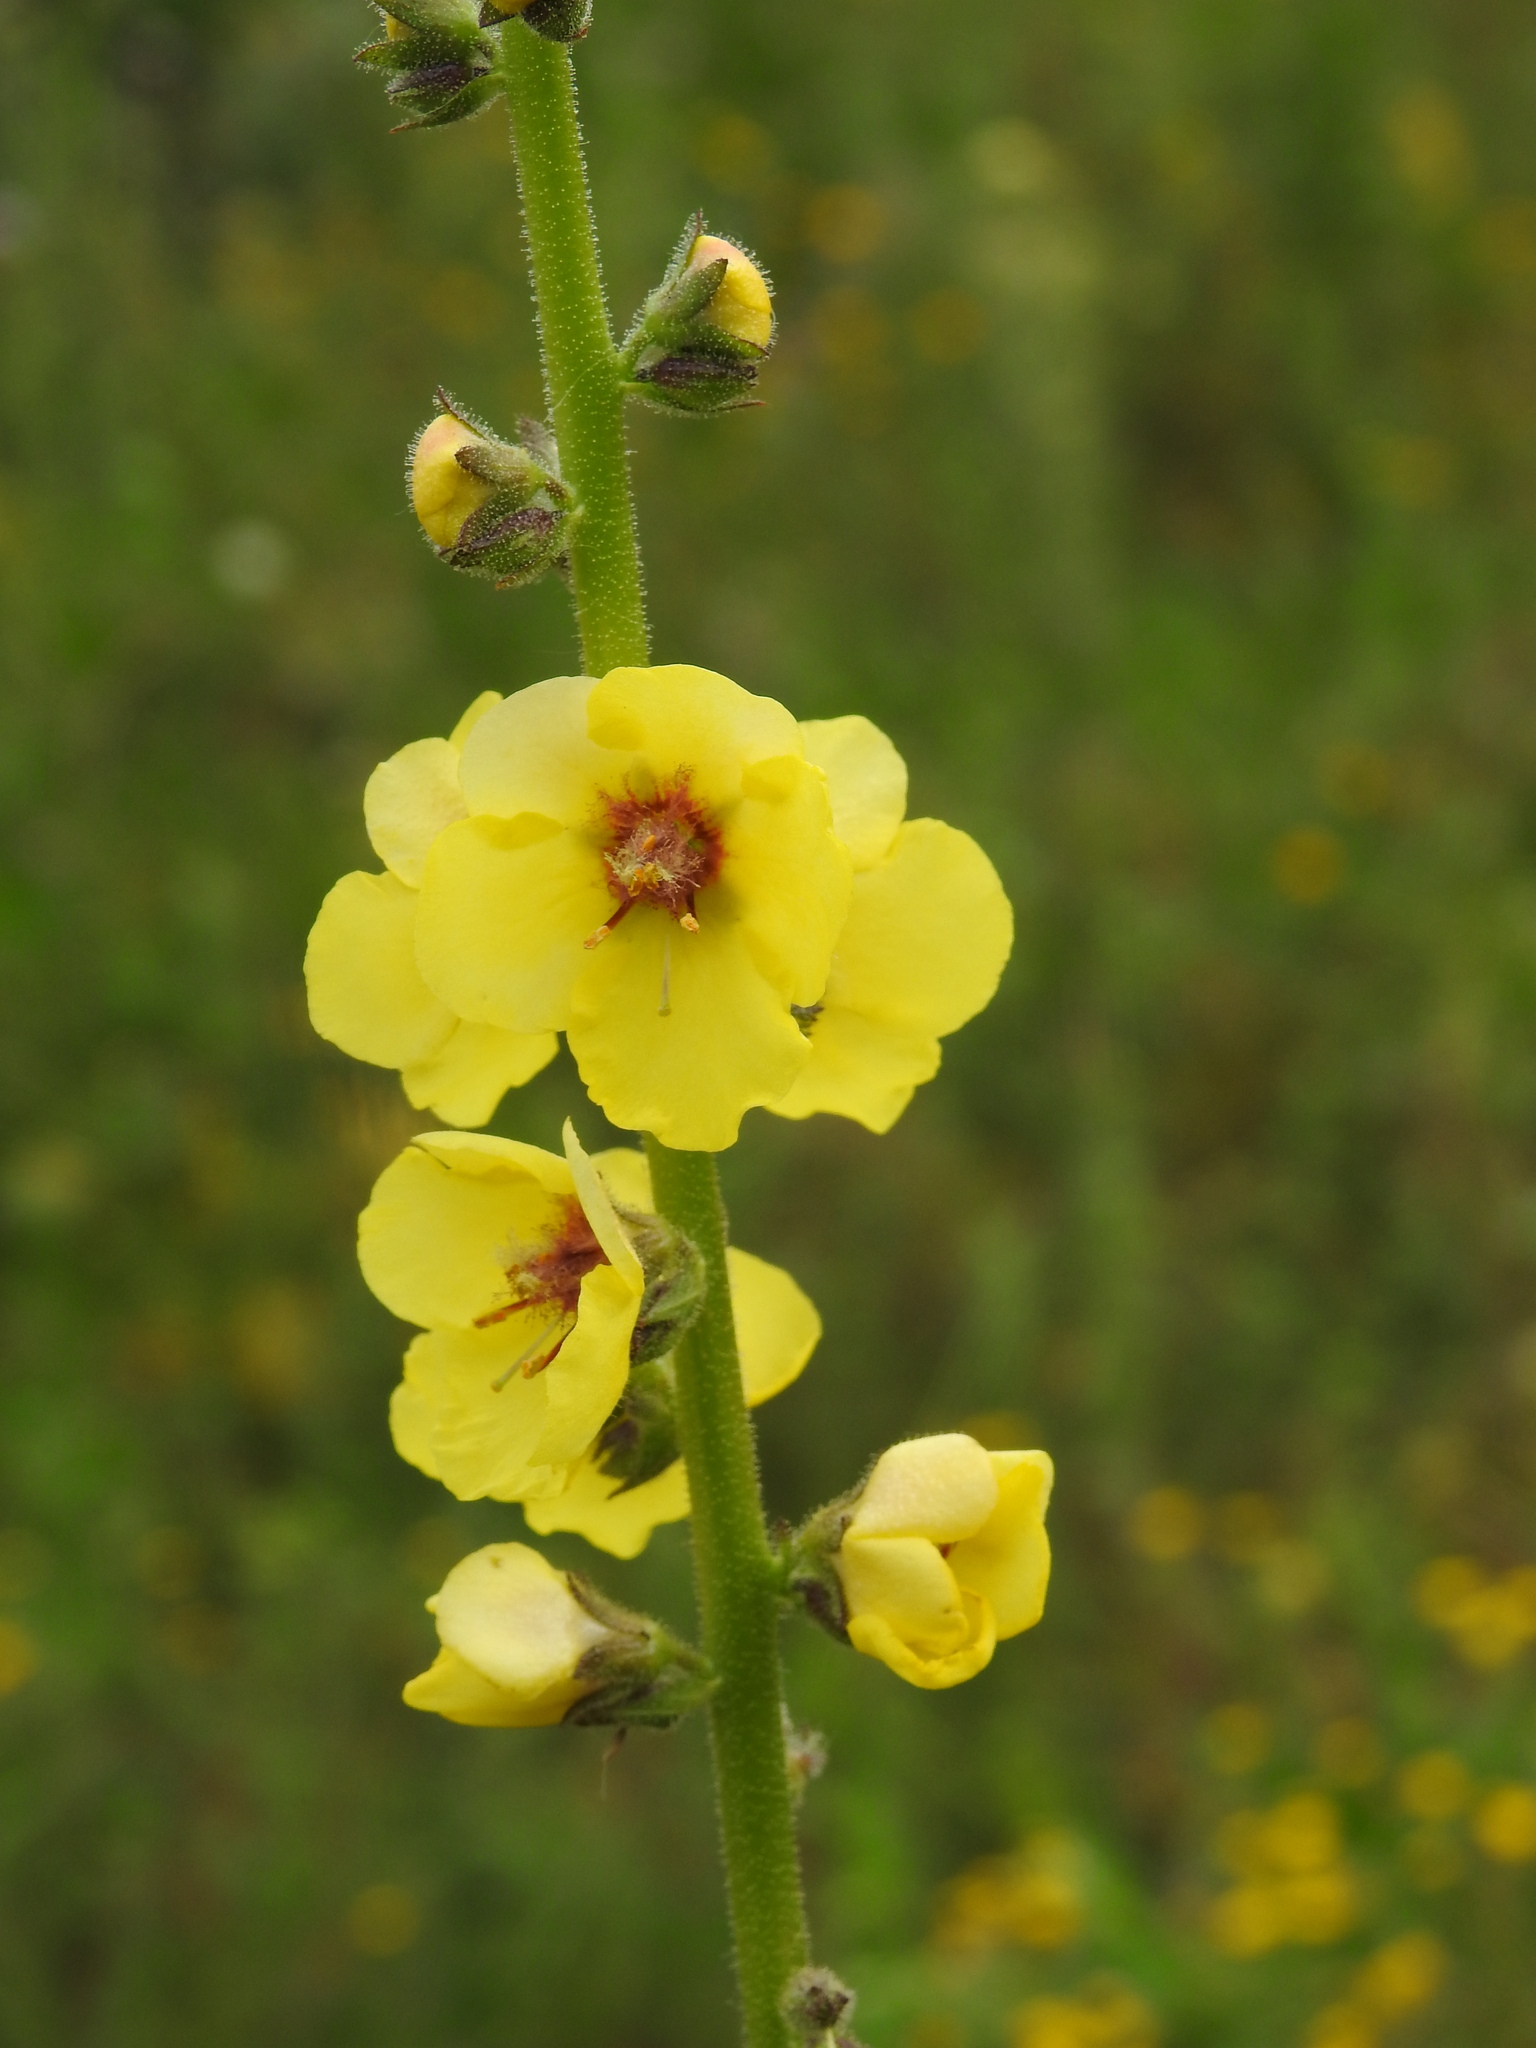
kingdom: Plantae
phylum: Tracheophyta
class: Magnoliopsida
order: Lamiales
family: Scrophulariaceae
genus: Verbascum
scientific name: Verbascum virgatum
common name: Twiggy mullein
